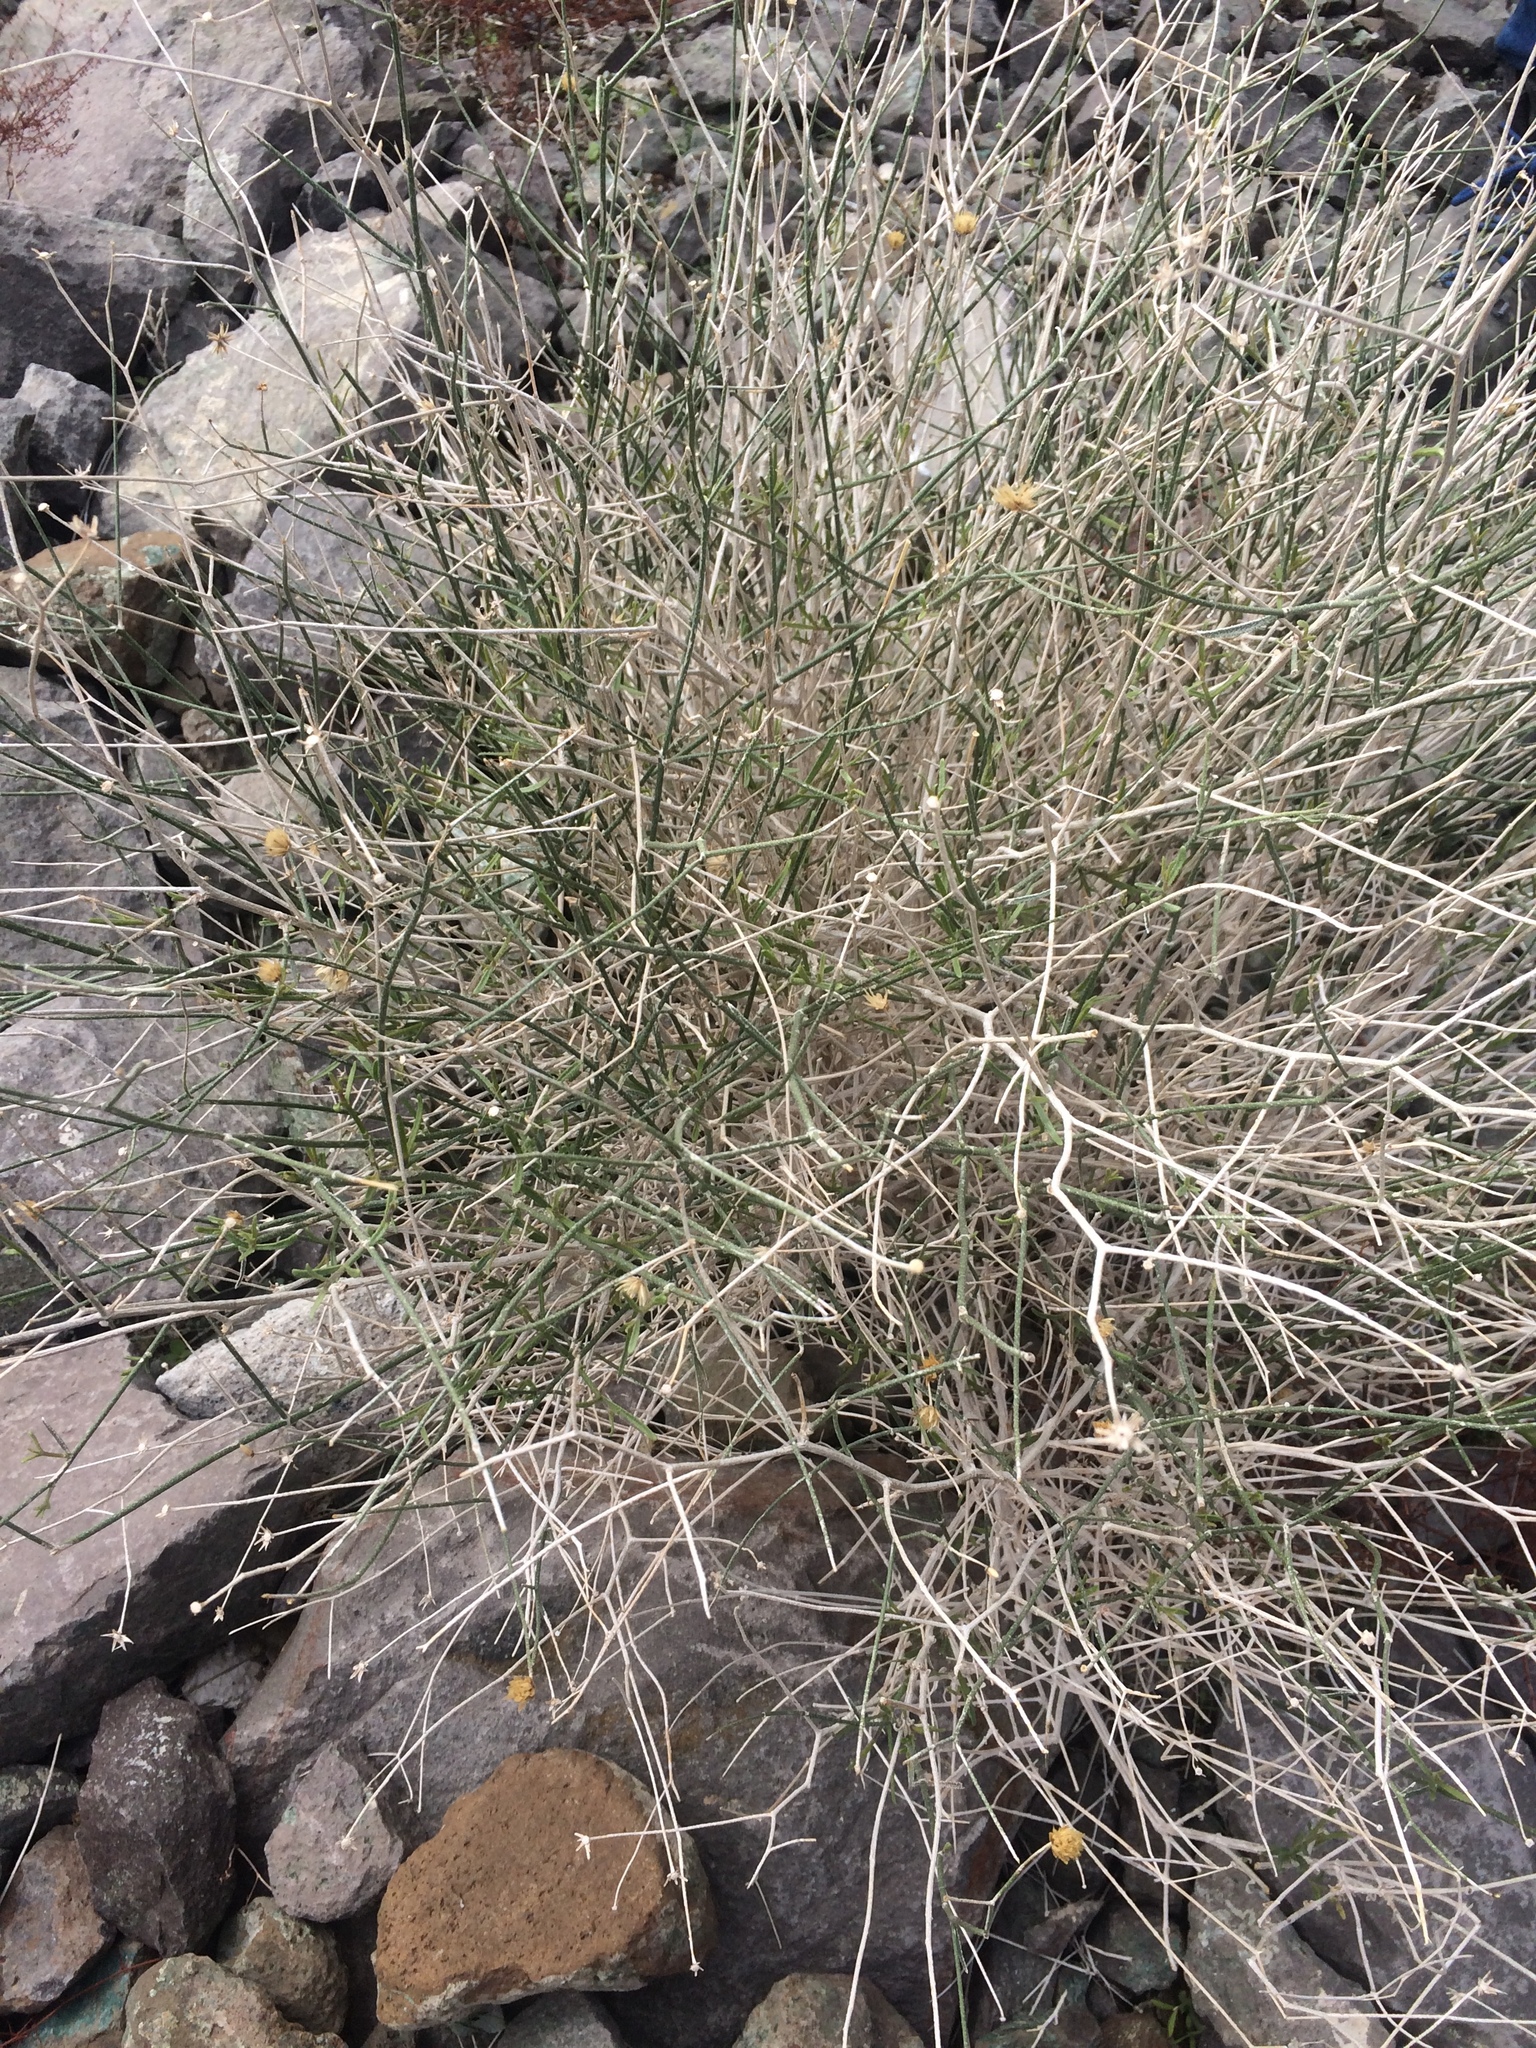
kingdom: Plantae
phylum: Tracheophyta
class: Magnoliopsida
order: Asterales
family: Asteraceae
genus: Bebbia
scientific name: Bebbia juncea
